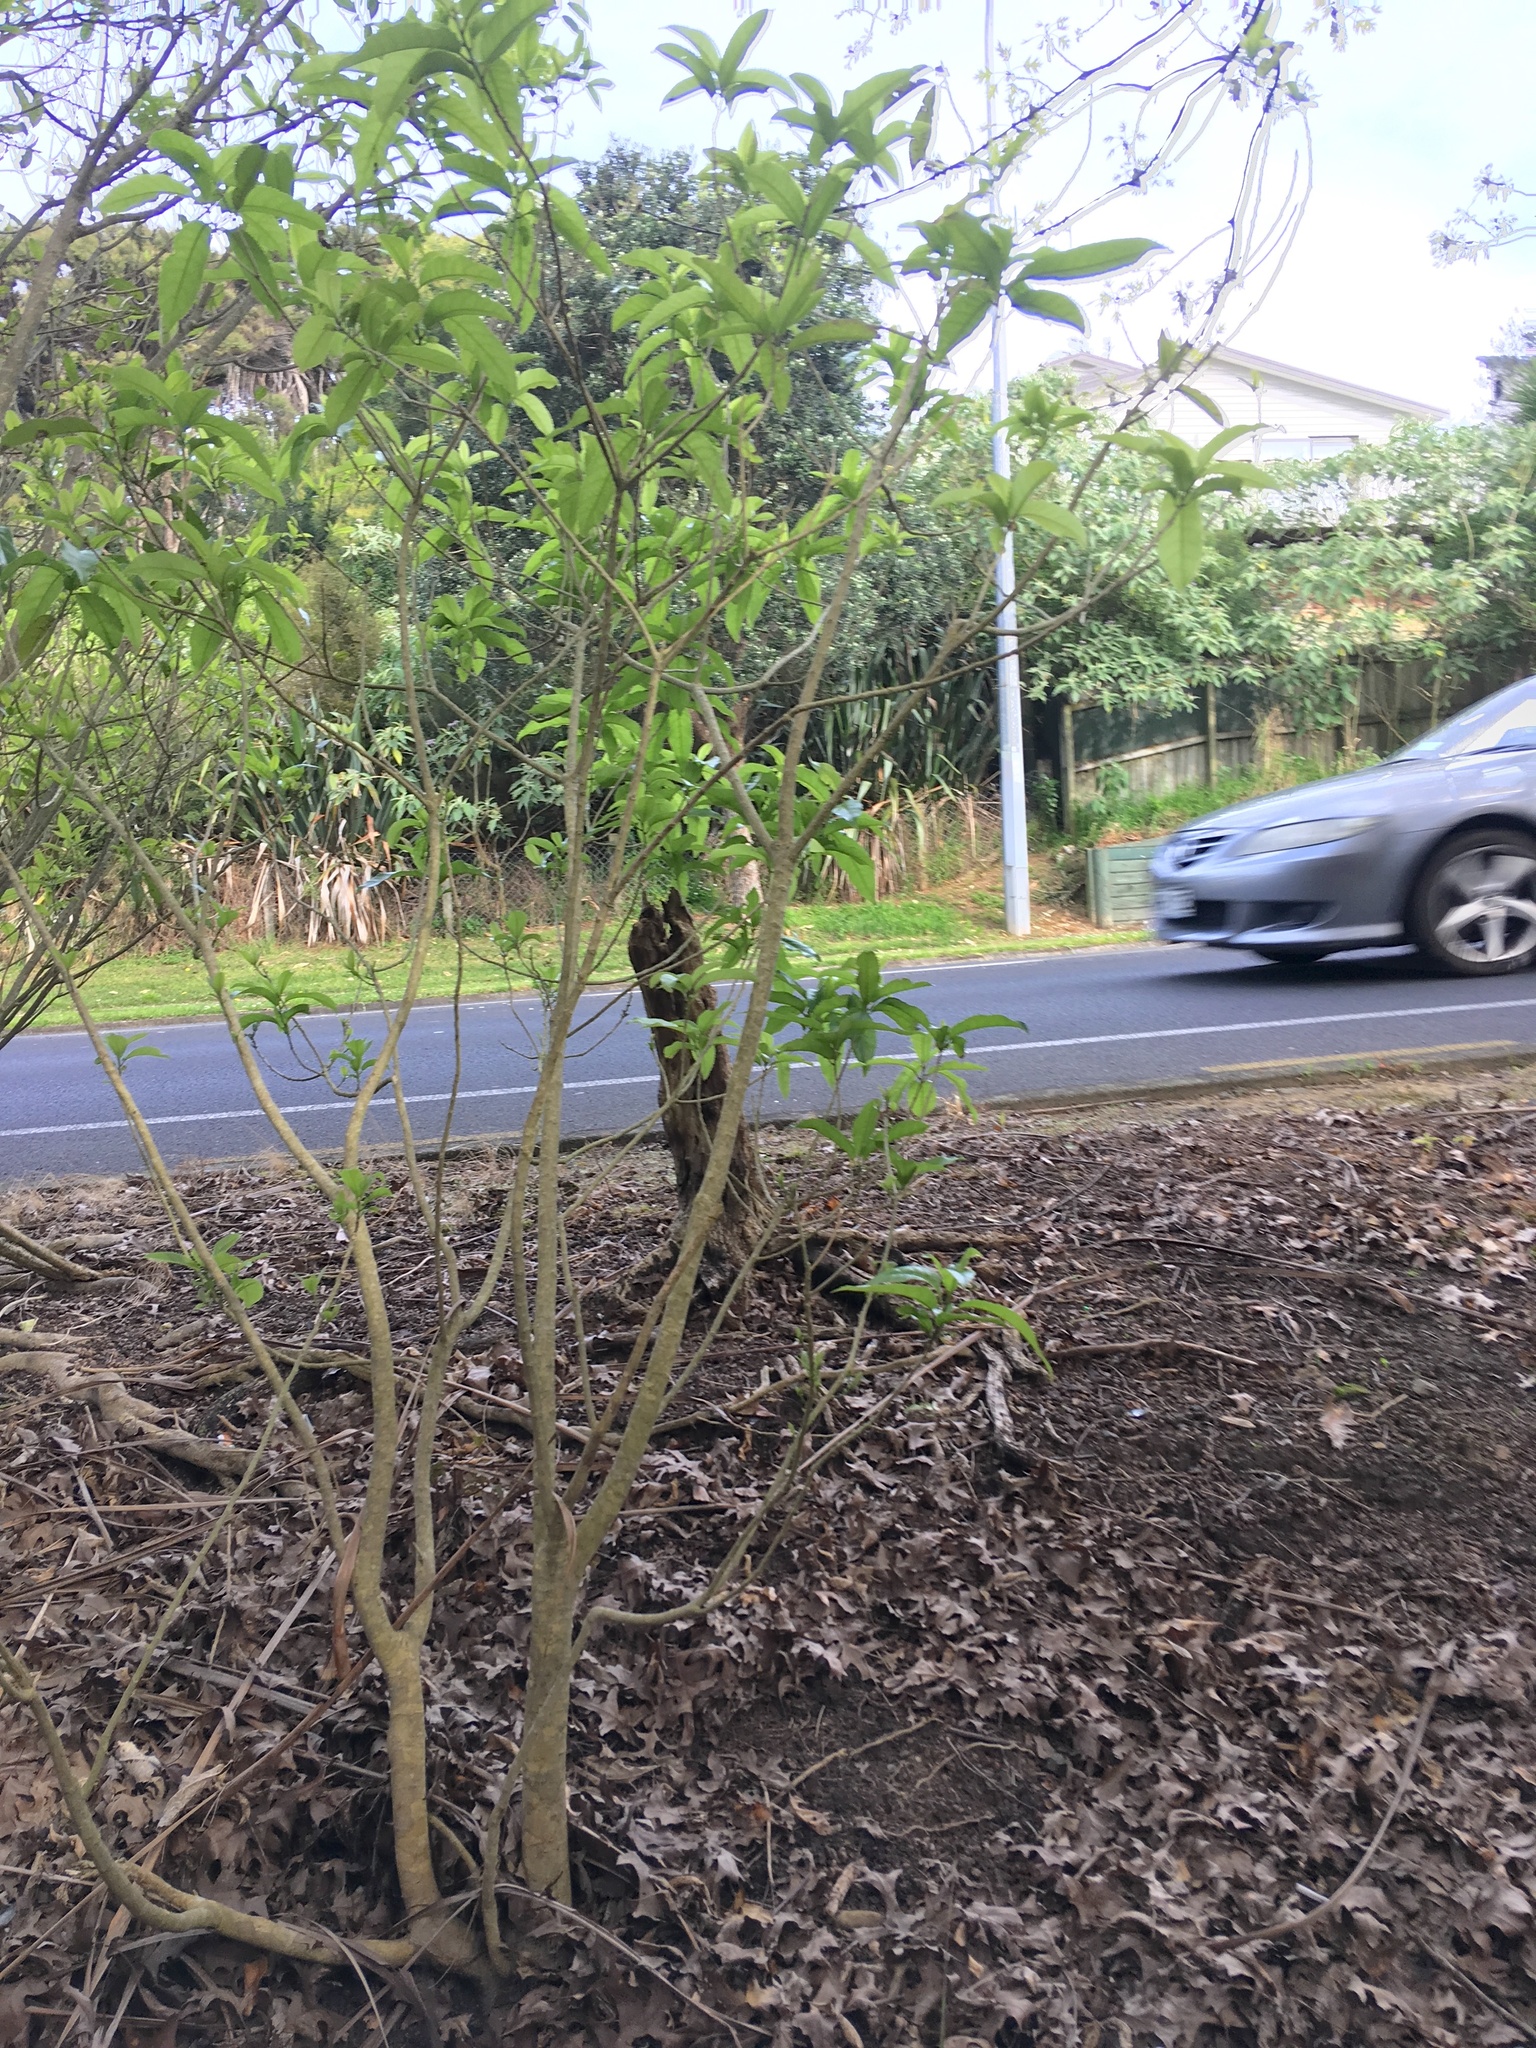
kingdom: Plantae
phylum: Tracheophyta
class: Magnoliopsida
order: Malpighiales
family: Violaceae
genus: Melicytus
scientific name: Melicytus ramiflorus
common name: Mahoe
